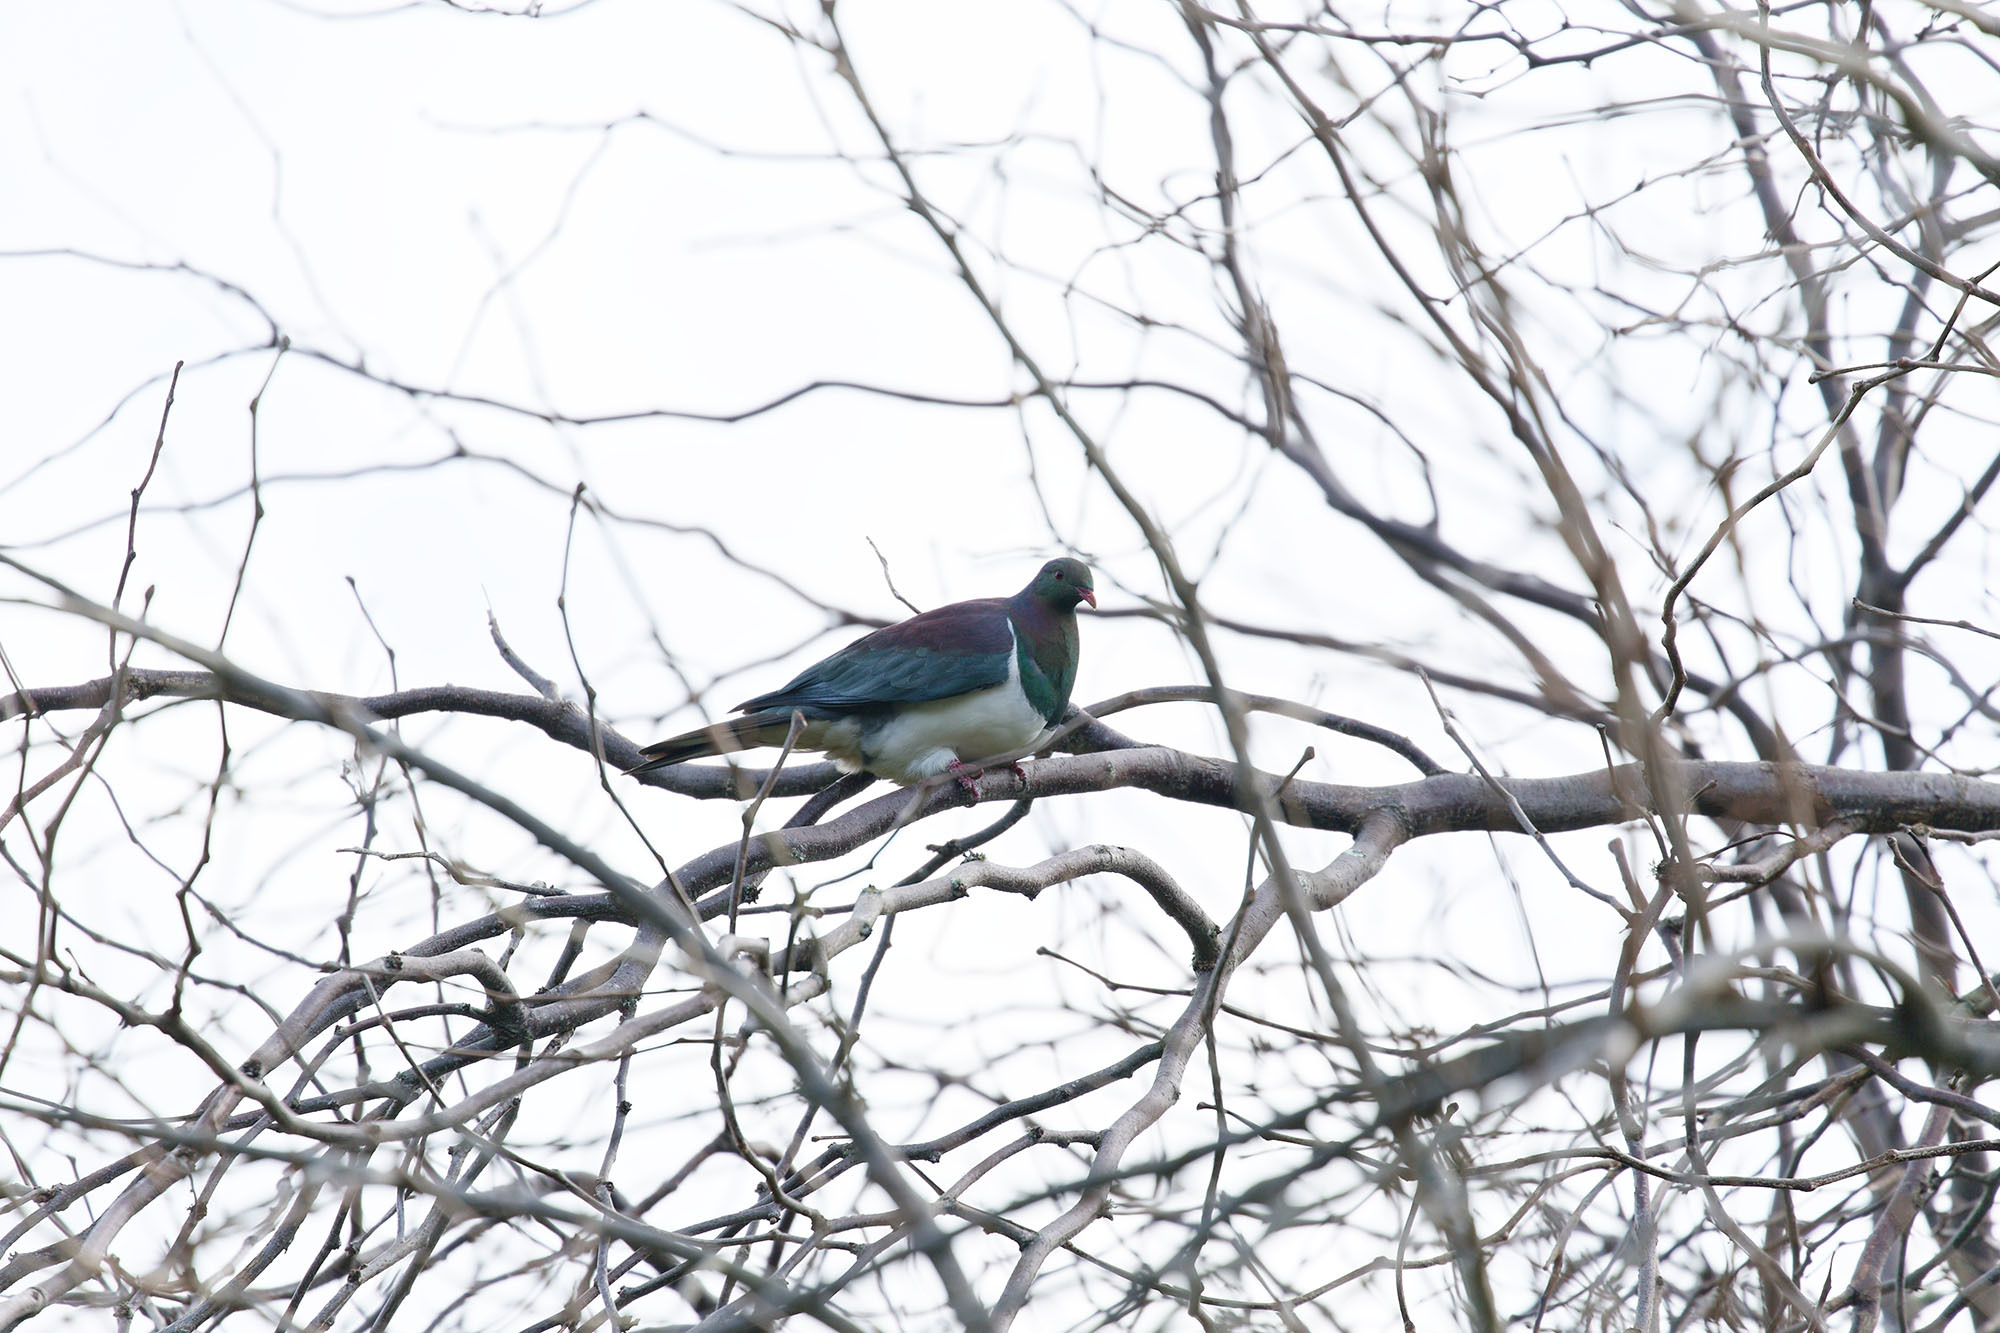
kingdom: Animalia
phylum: Chordata
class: Aves
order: Columbiformes
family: Columbidae
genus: Hemiphaga
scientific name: Hemiphaga novaeseelandiae
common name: New zealand pigeon
